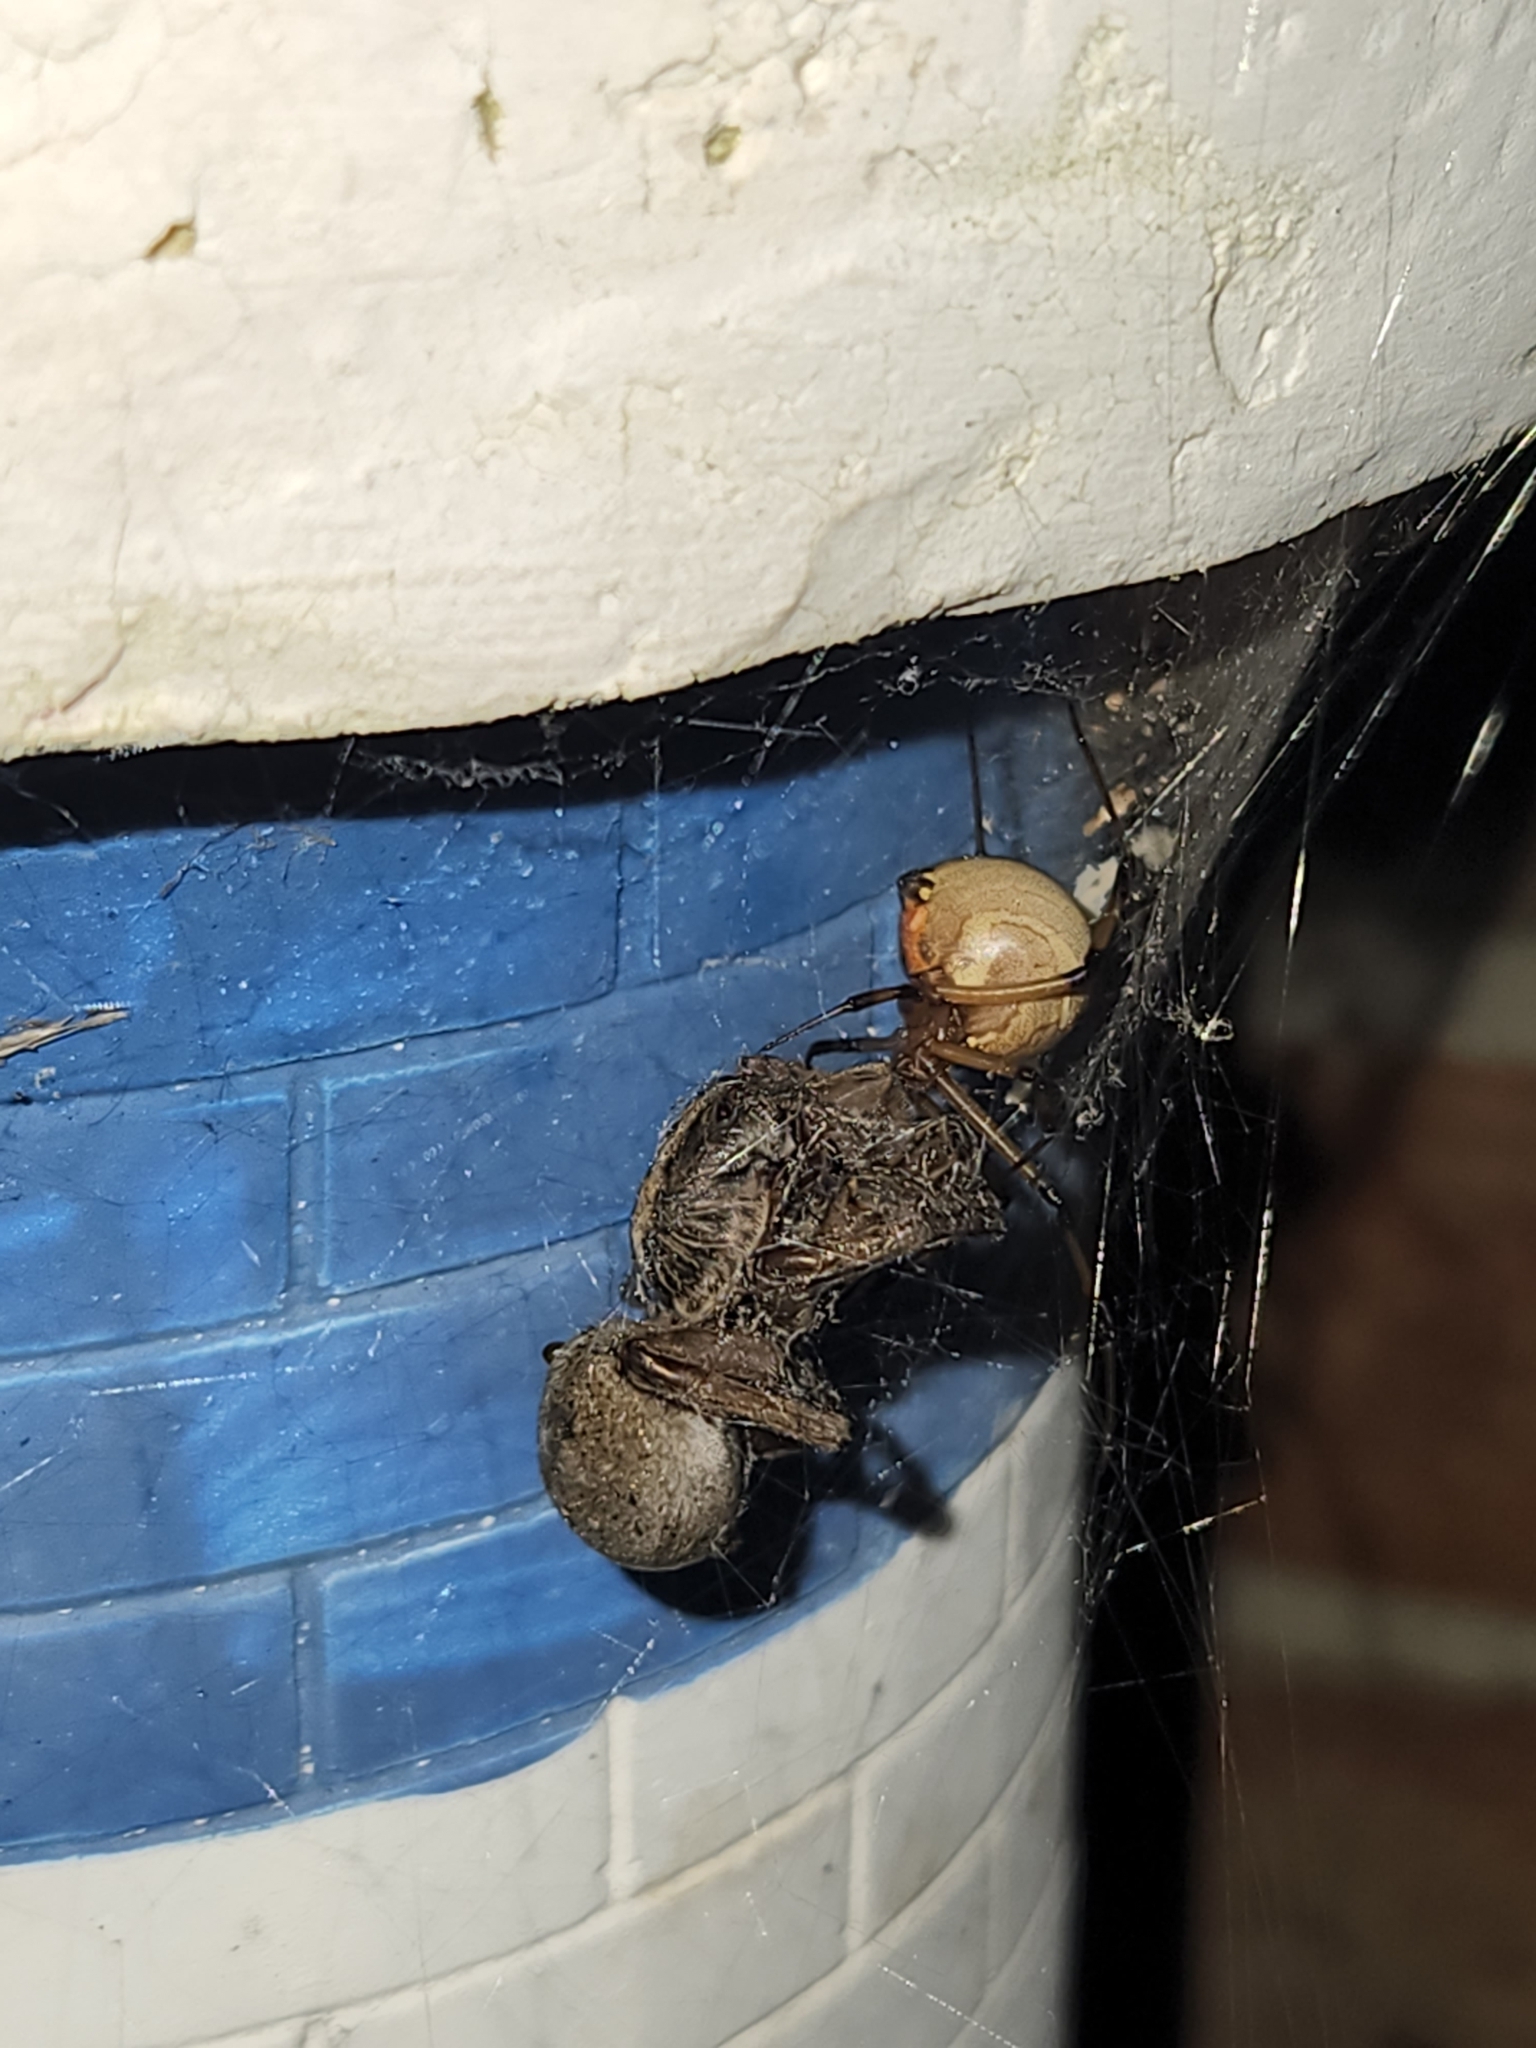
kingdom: Animalia
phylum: Arthropoda
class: Arachnida
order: Araneae
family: Theridiidae
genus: Latrodectus
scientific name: Latrodectus geometricus
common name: Brown widow spider
